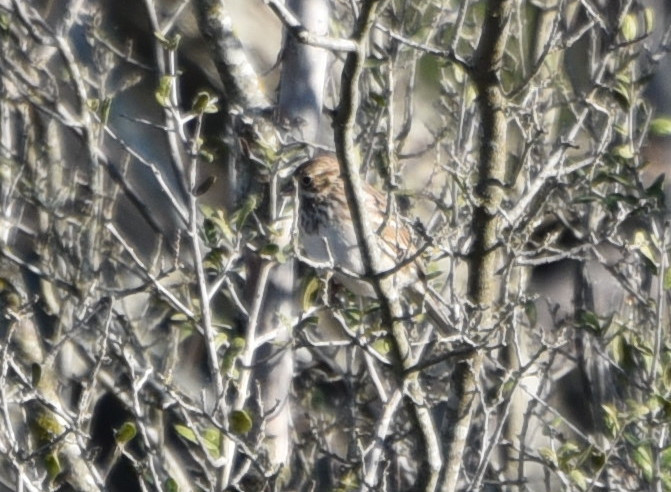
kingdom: Animalia
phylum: Chordata
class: Aves
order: Passeriformes
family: Passerellidae
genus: Pooecetes
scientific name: Pooecetes gramineus
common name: Vesper sparrow
